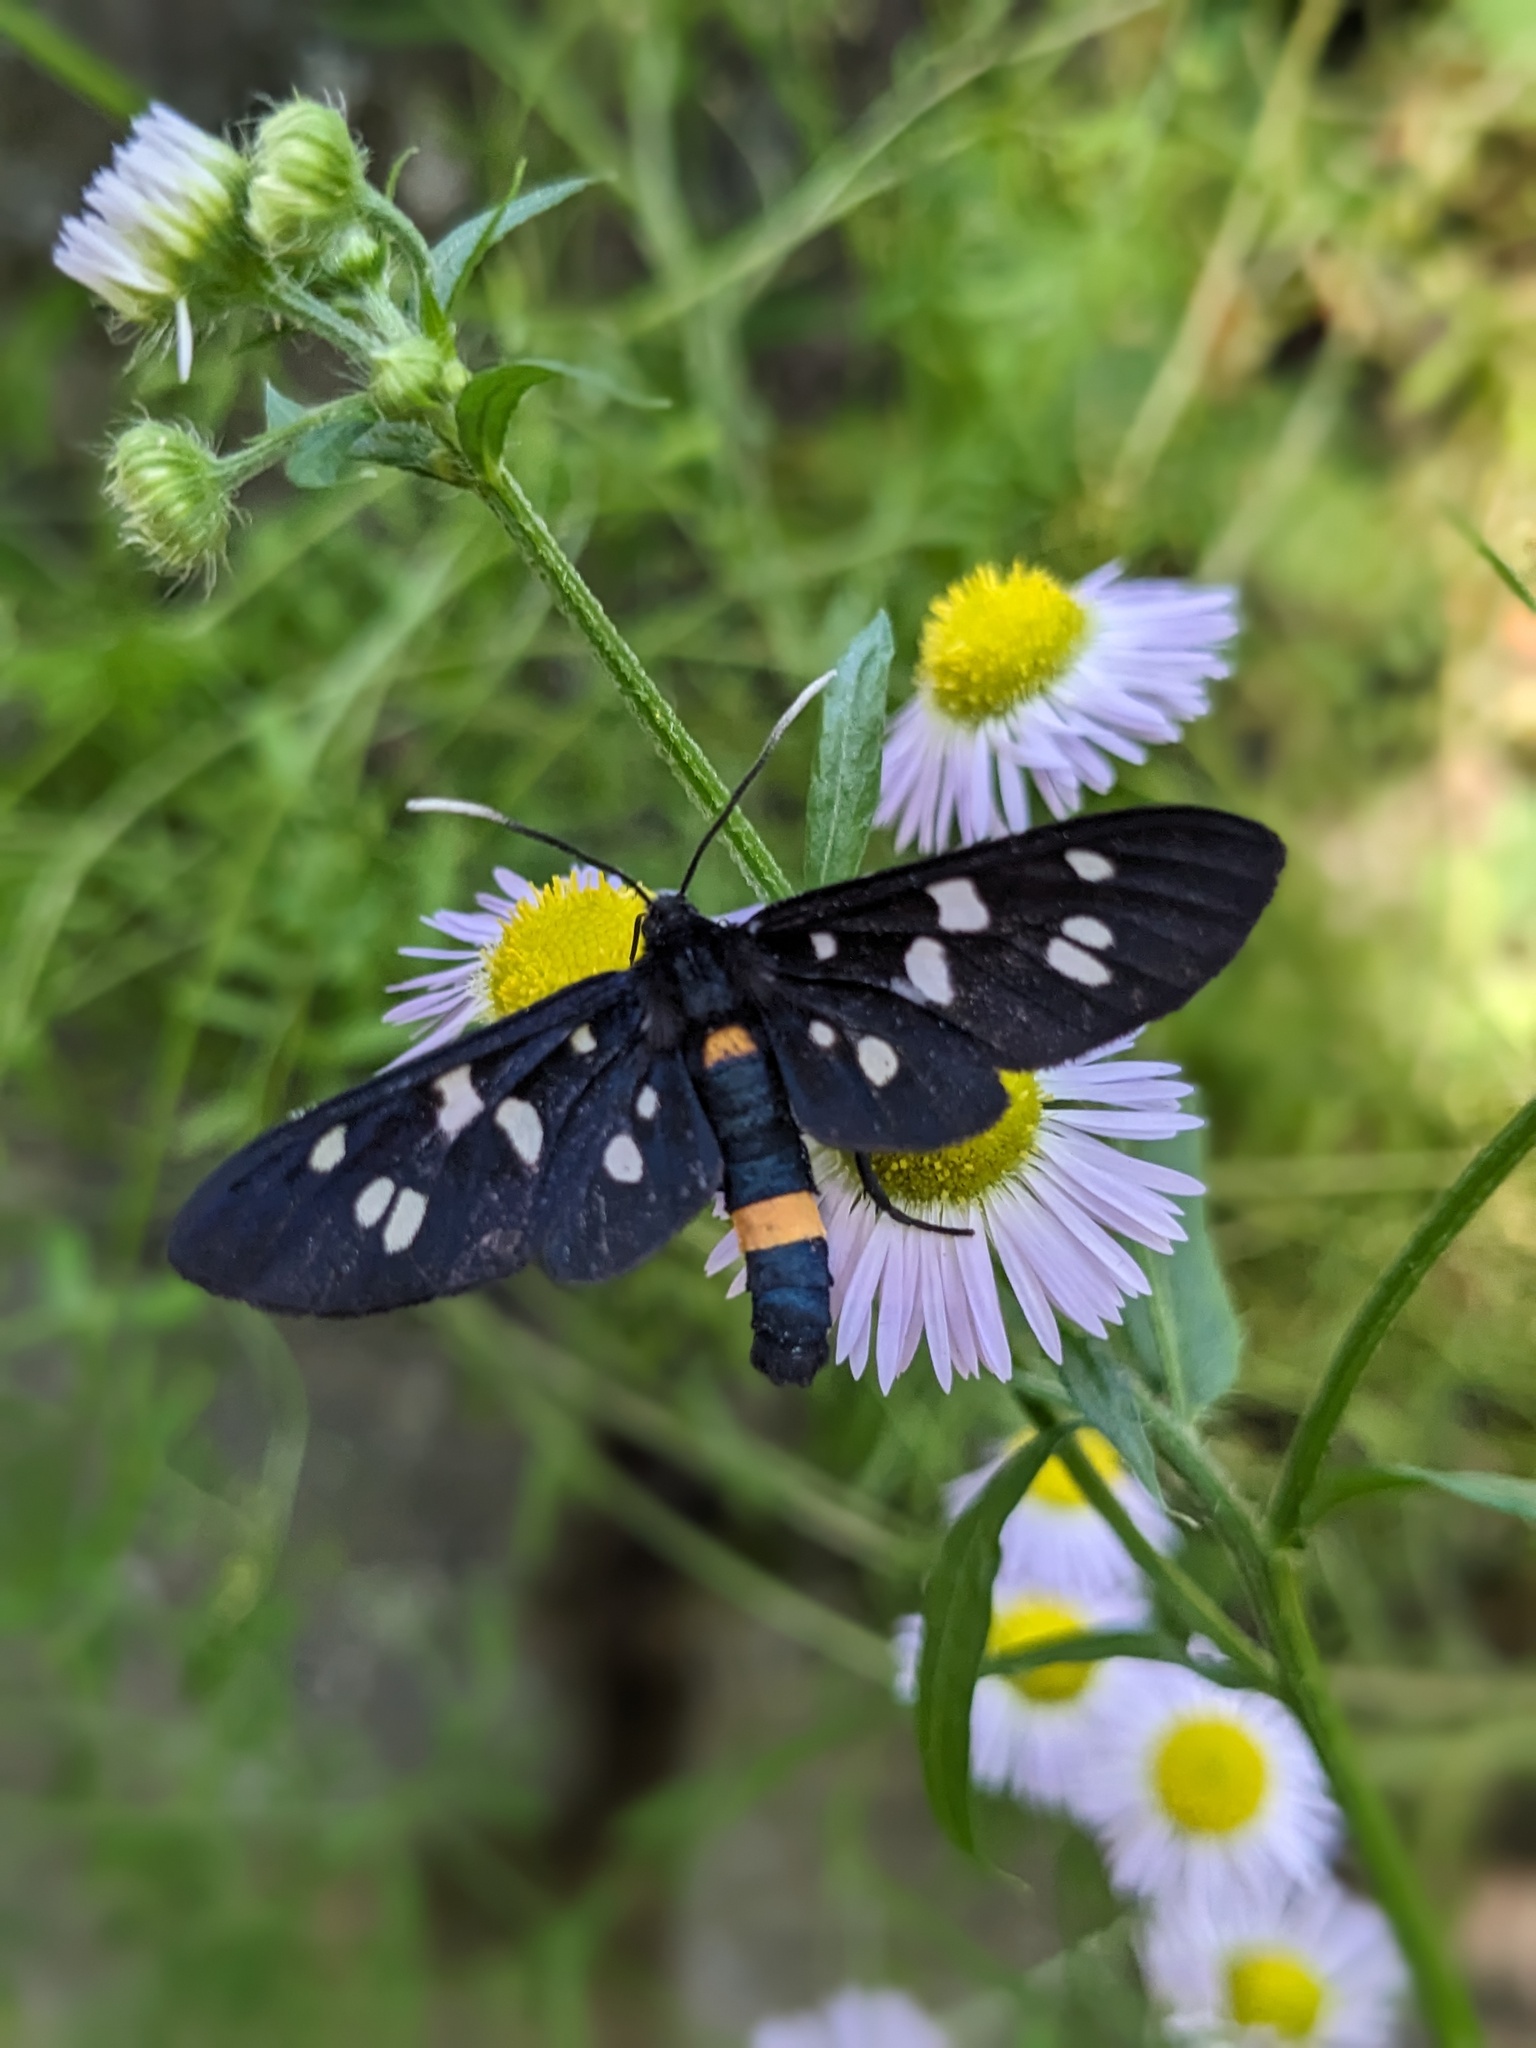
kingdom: Animalia
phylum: Arthropoda
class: Insecta
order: Lepidoptera
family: Erebidae
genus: Amata
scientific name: Amata phegea
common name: Nine-spotted
